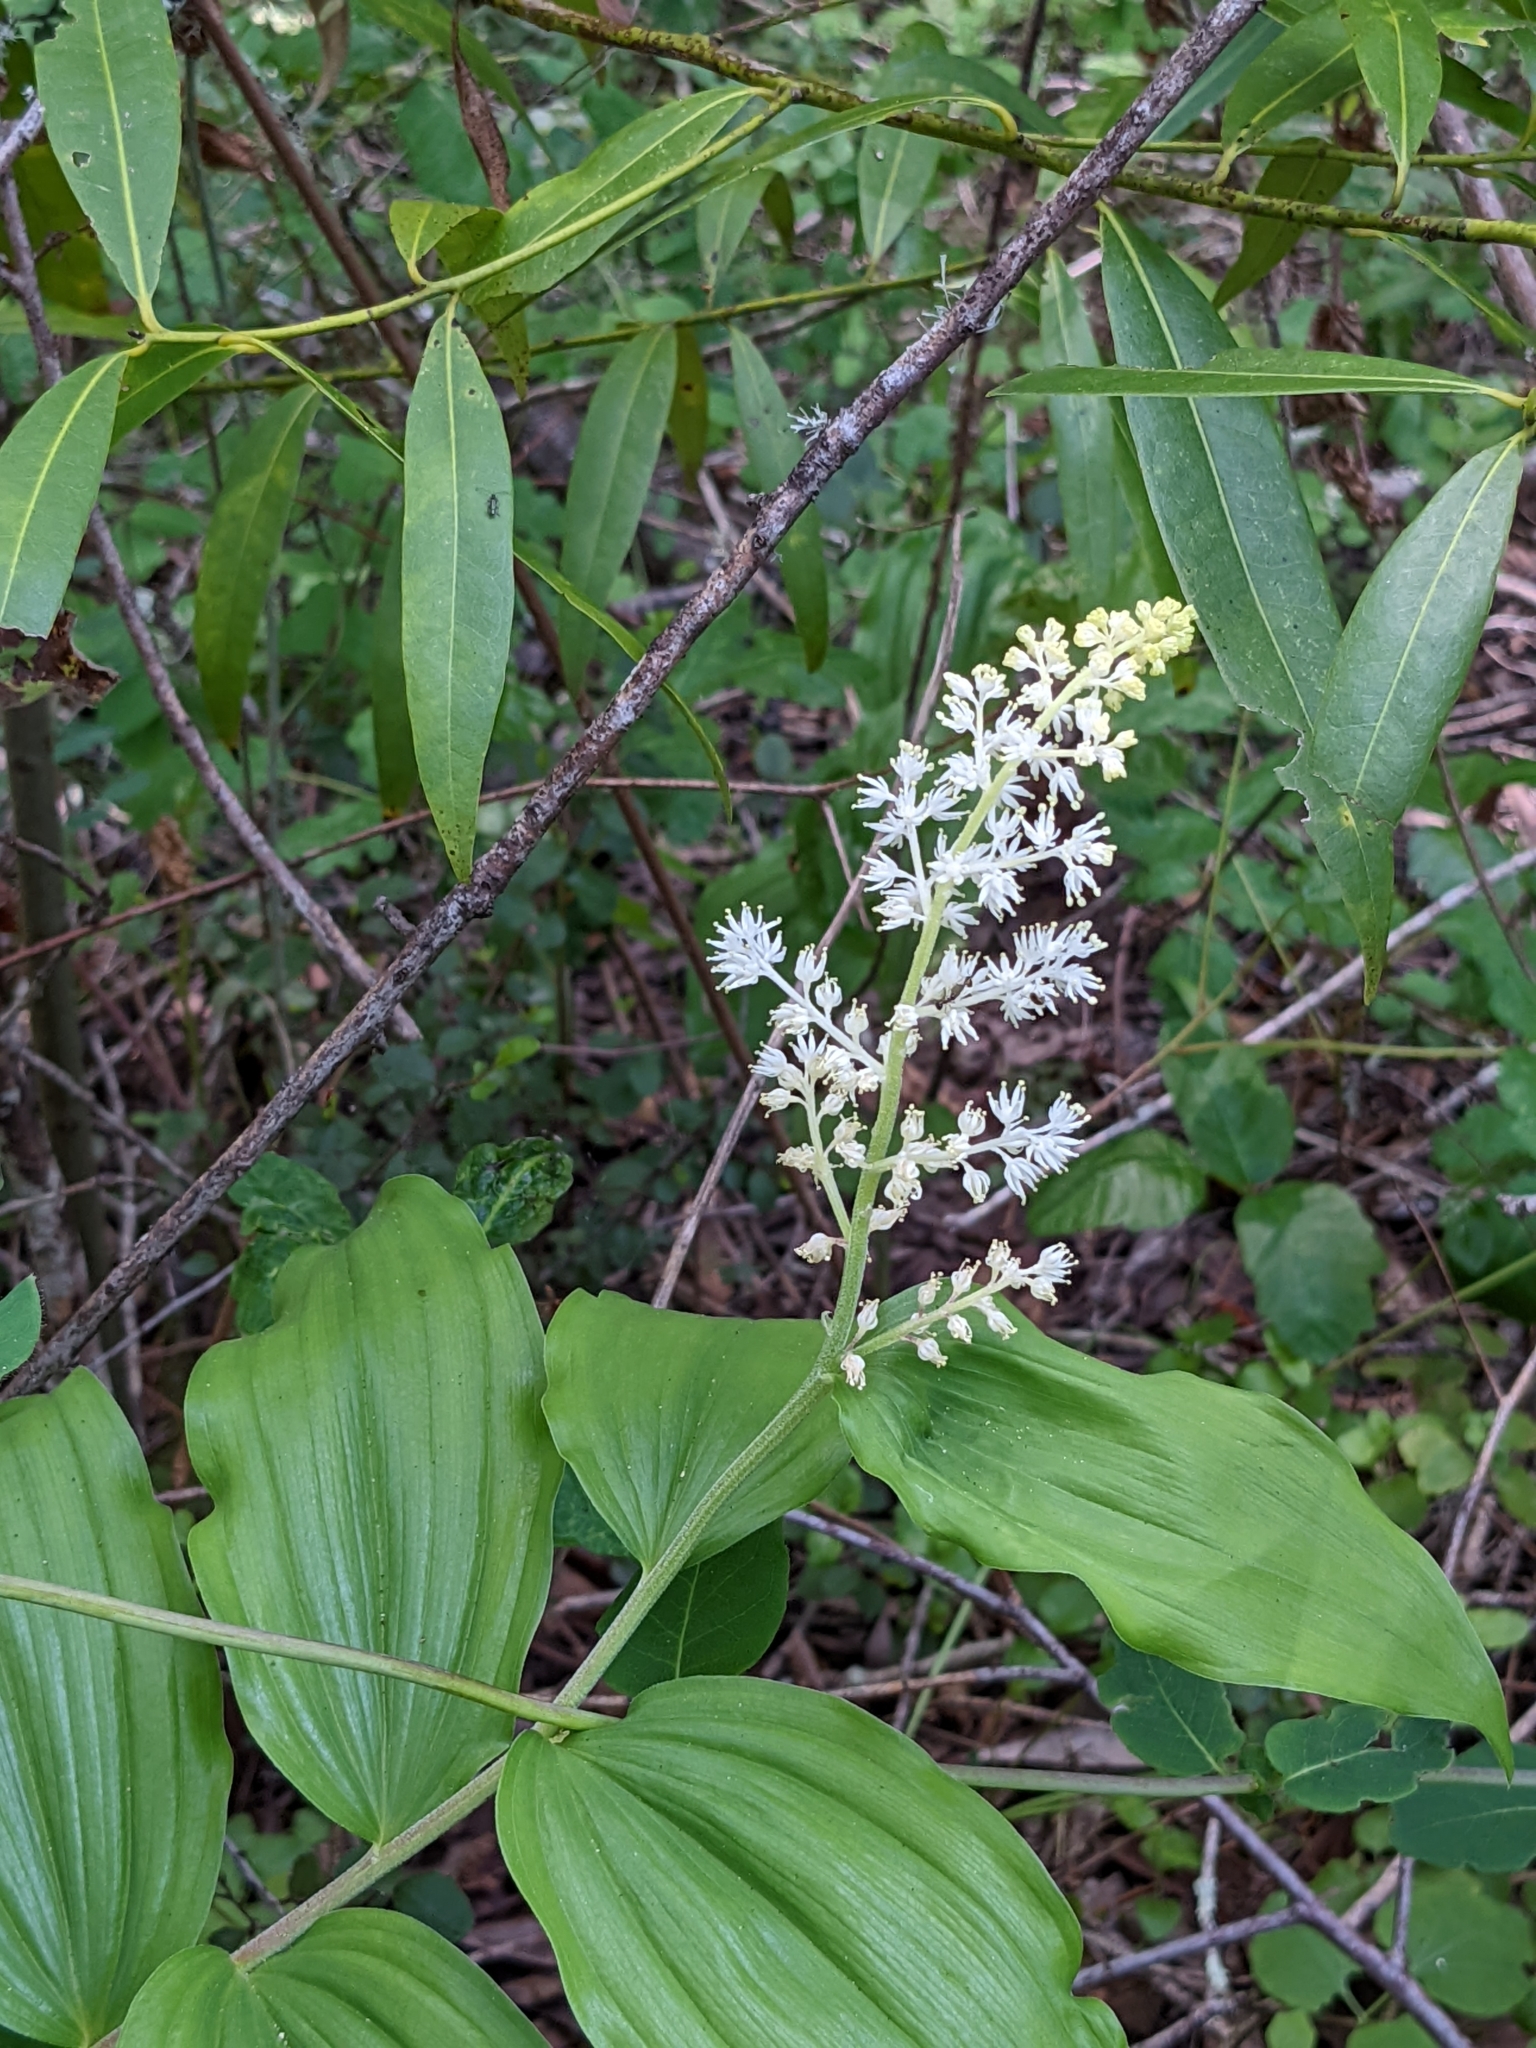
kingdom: Plantae
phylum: Tracheophyta
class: Liliopsida
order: Asparagales
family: Asparagaceae
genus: Maianthemum
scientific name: Maianthemum racemosum
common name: False spikenard
